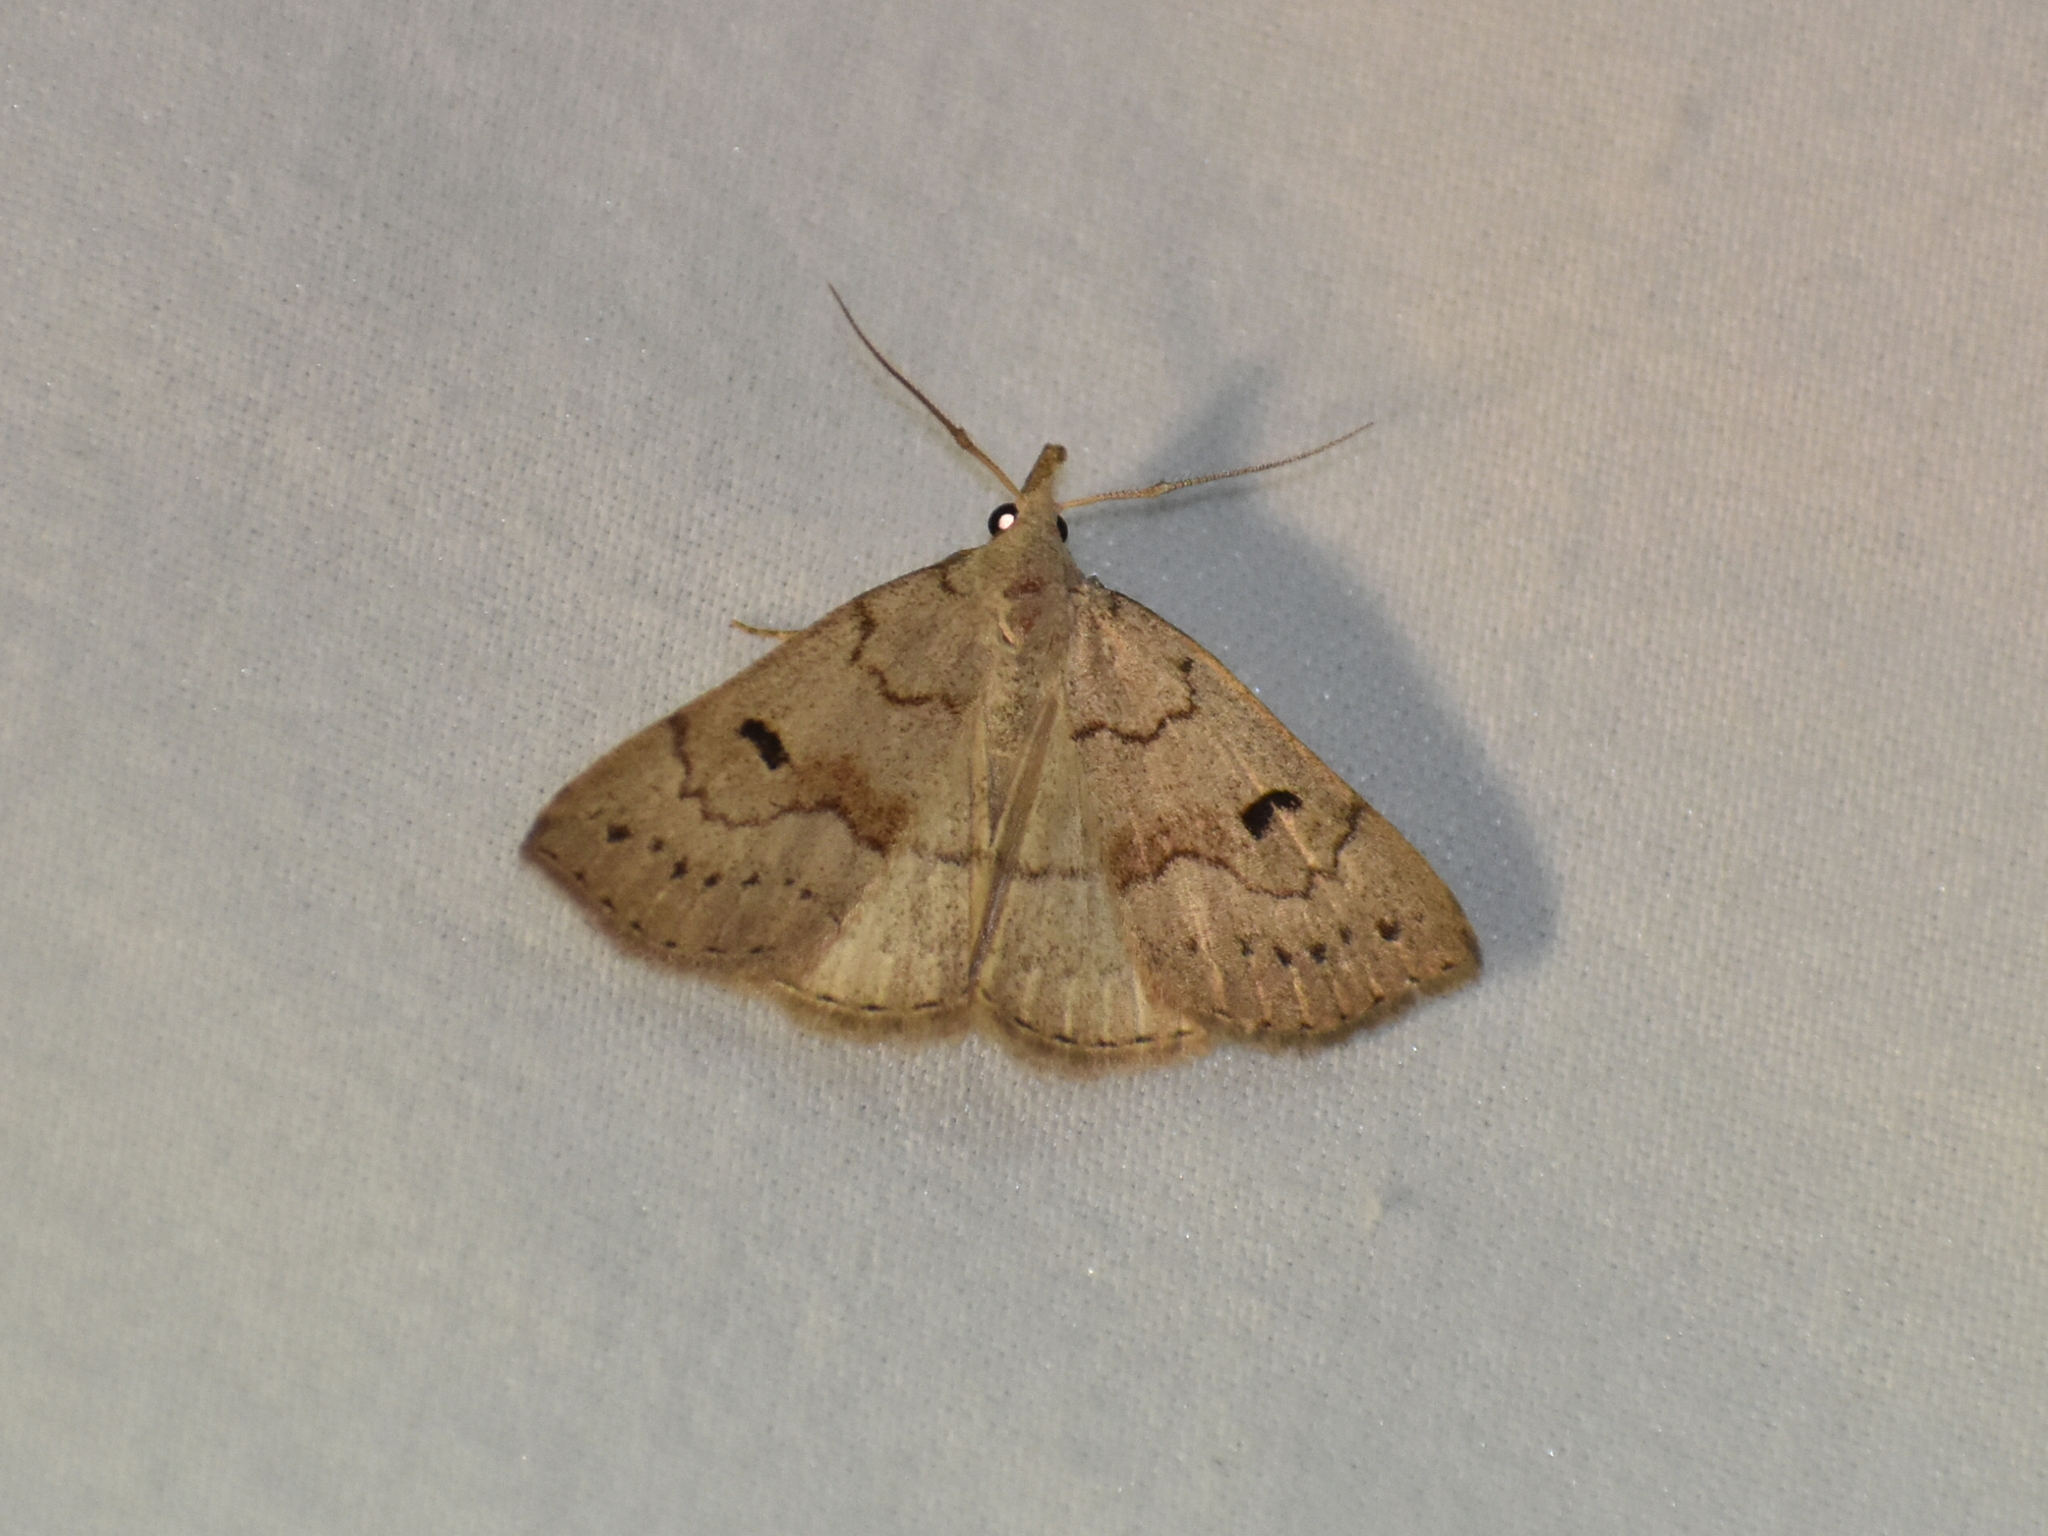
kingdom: Animalia
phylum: Arthropoda
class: Insecta
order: Lepidoptera
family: Erebidae
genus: Macrochilo
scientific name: Macrochilo morbidalis
